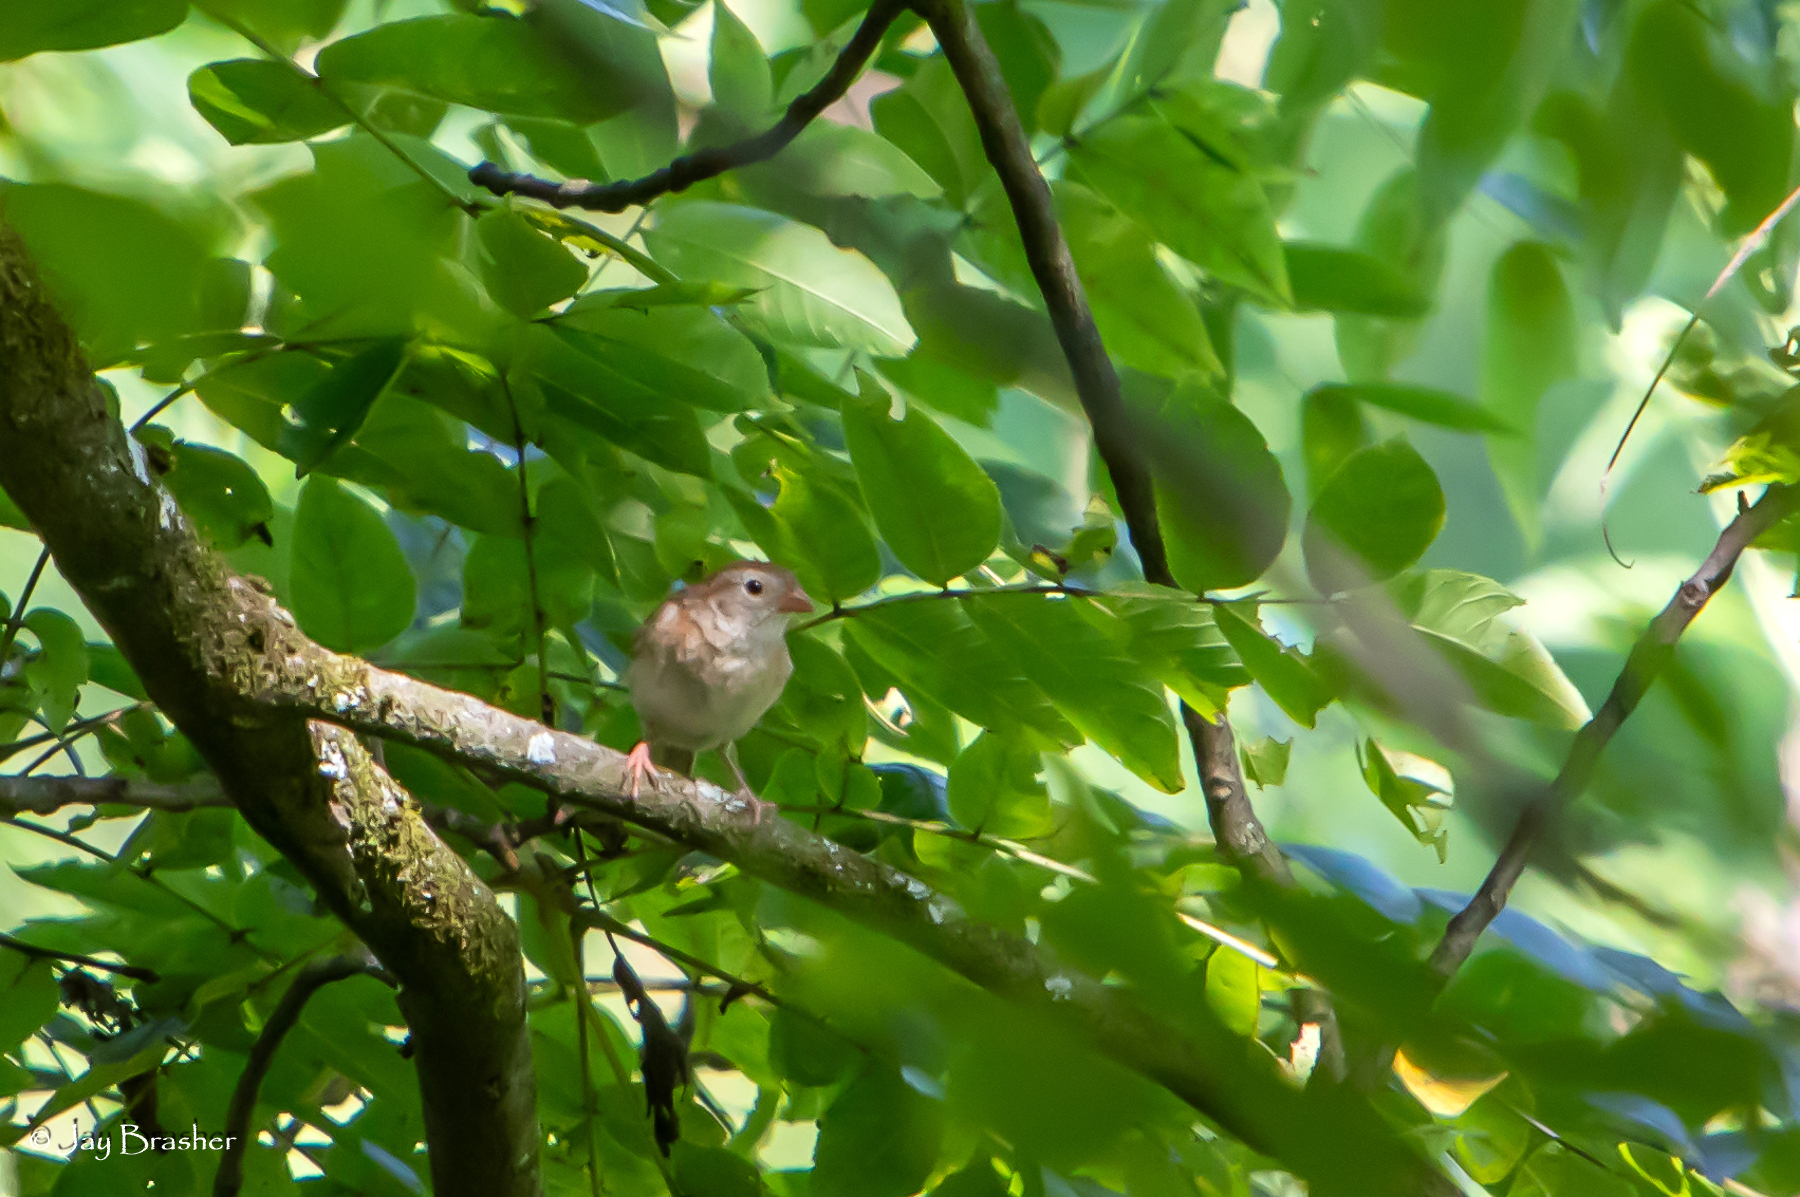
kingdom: Animalia
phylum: Chordata
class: Aves
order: Passeriformes
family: Passerellidae
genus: Spizella
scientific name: Spizella pusilla
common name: Field sparrow
